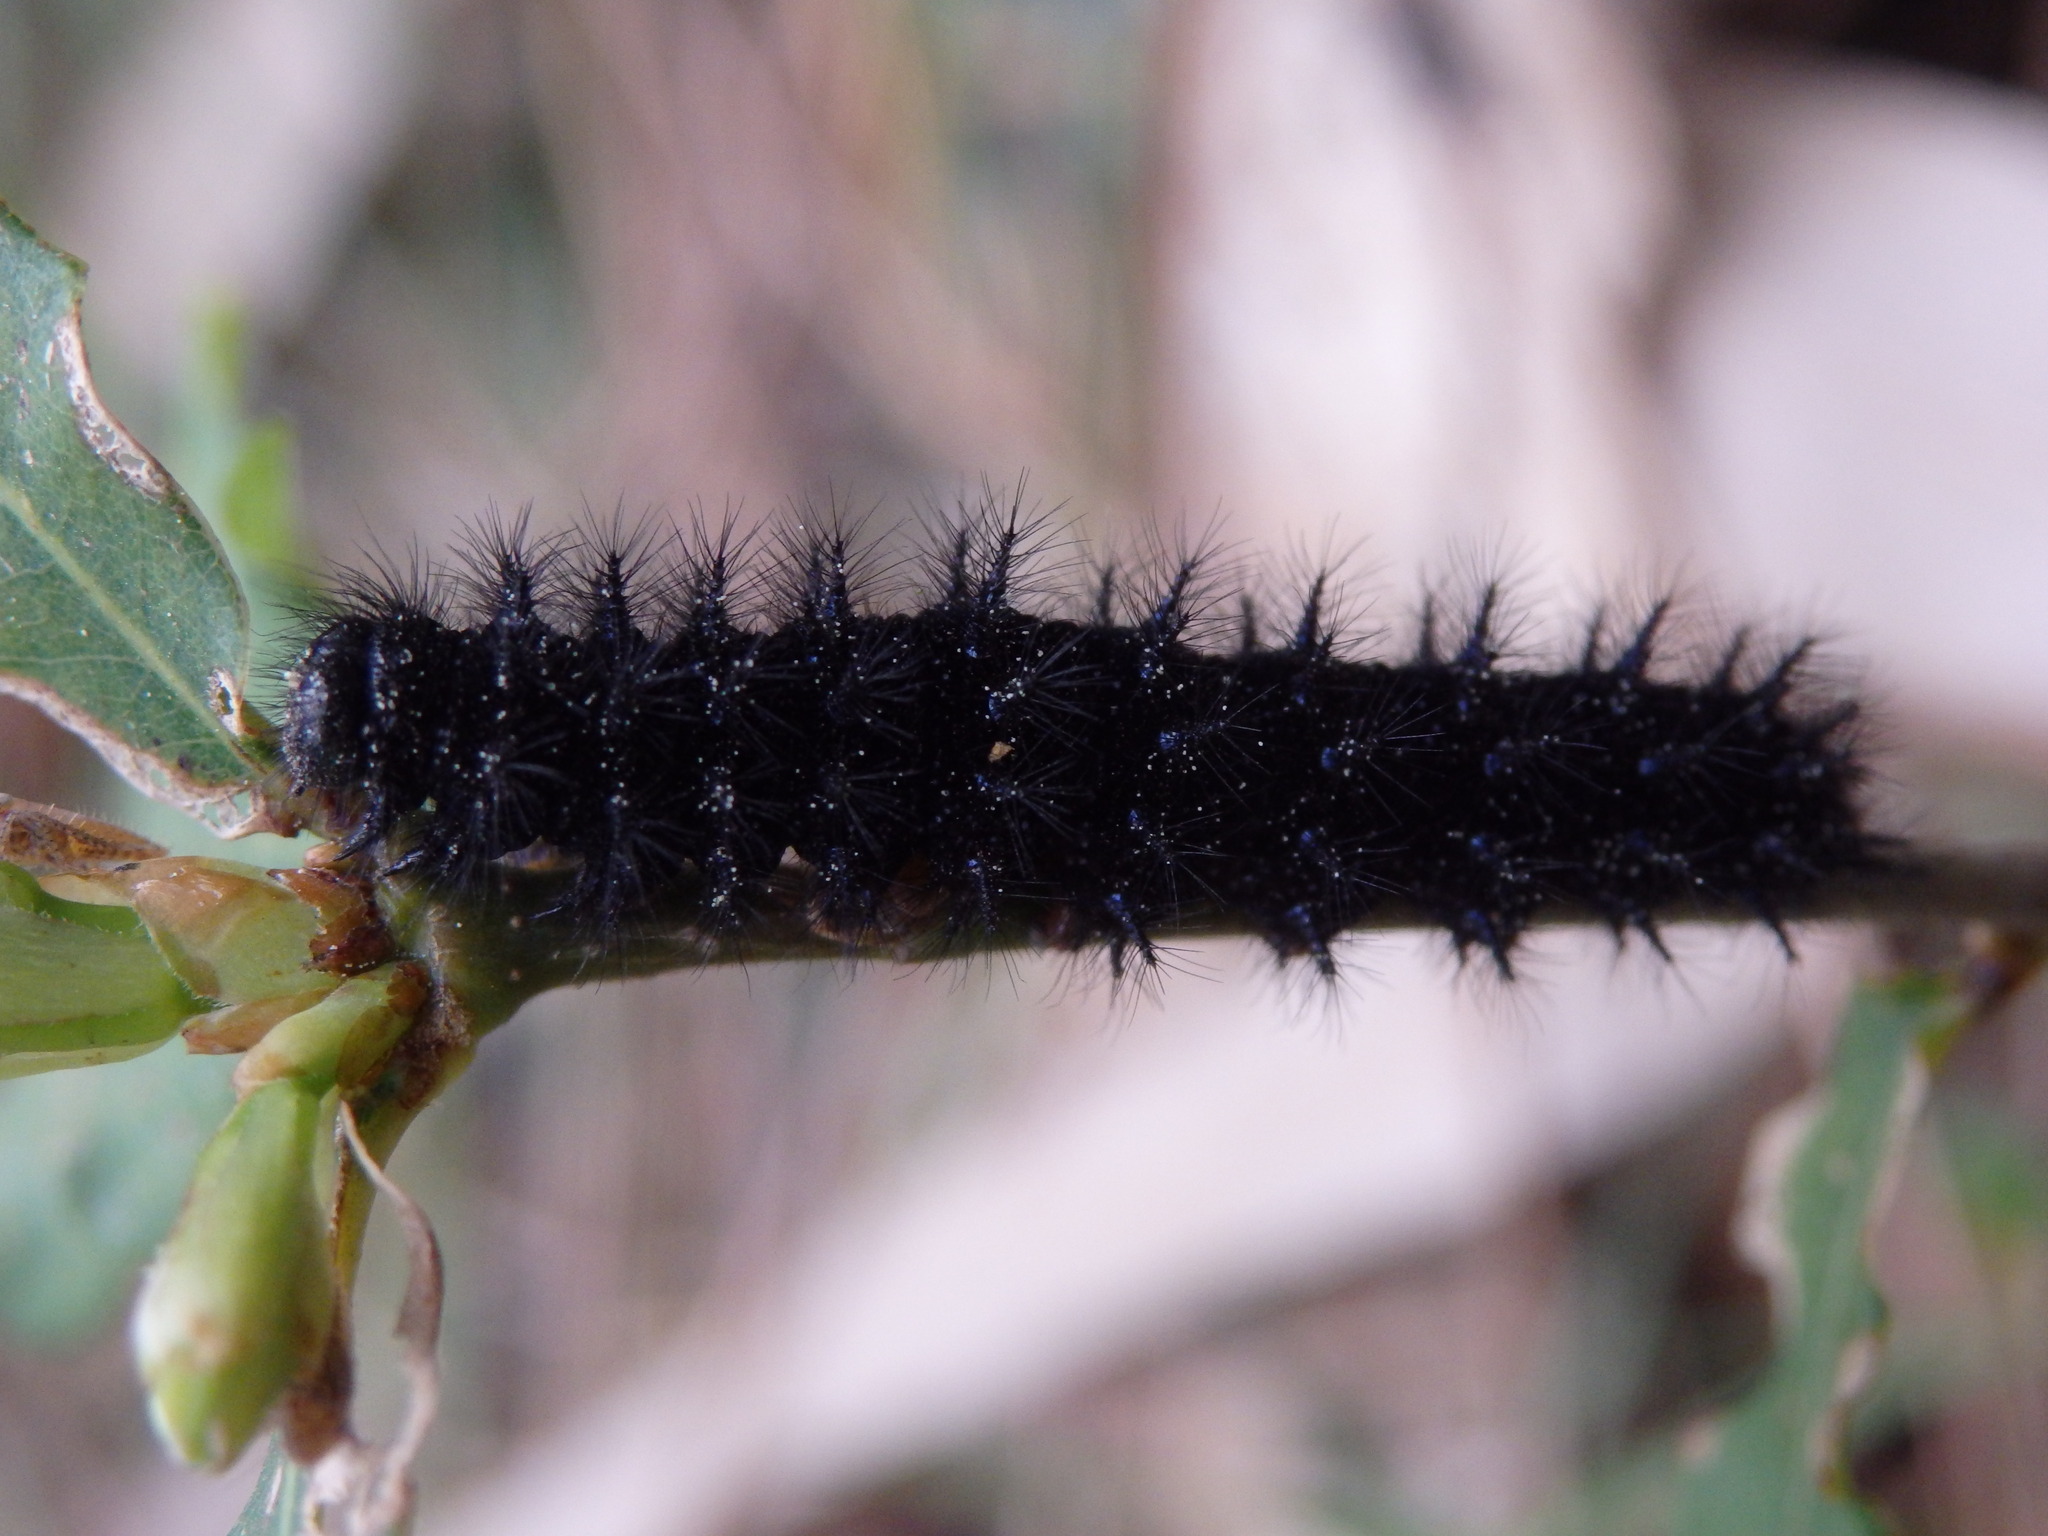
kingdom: Animalia
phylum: Arthropoda
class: Insecta
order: Lepidoptera
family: Nymphalidae
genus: Euphydryas
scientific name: Euphydryas aurinia
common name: Marsh fritillary
